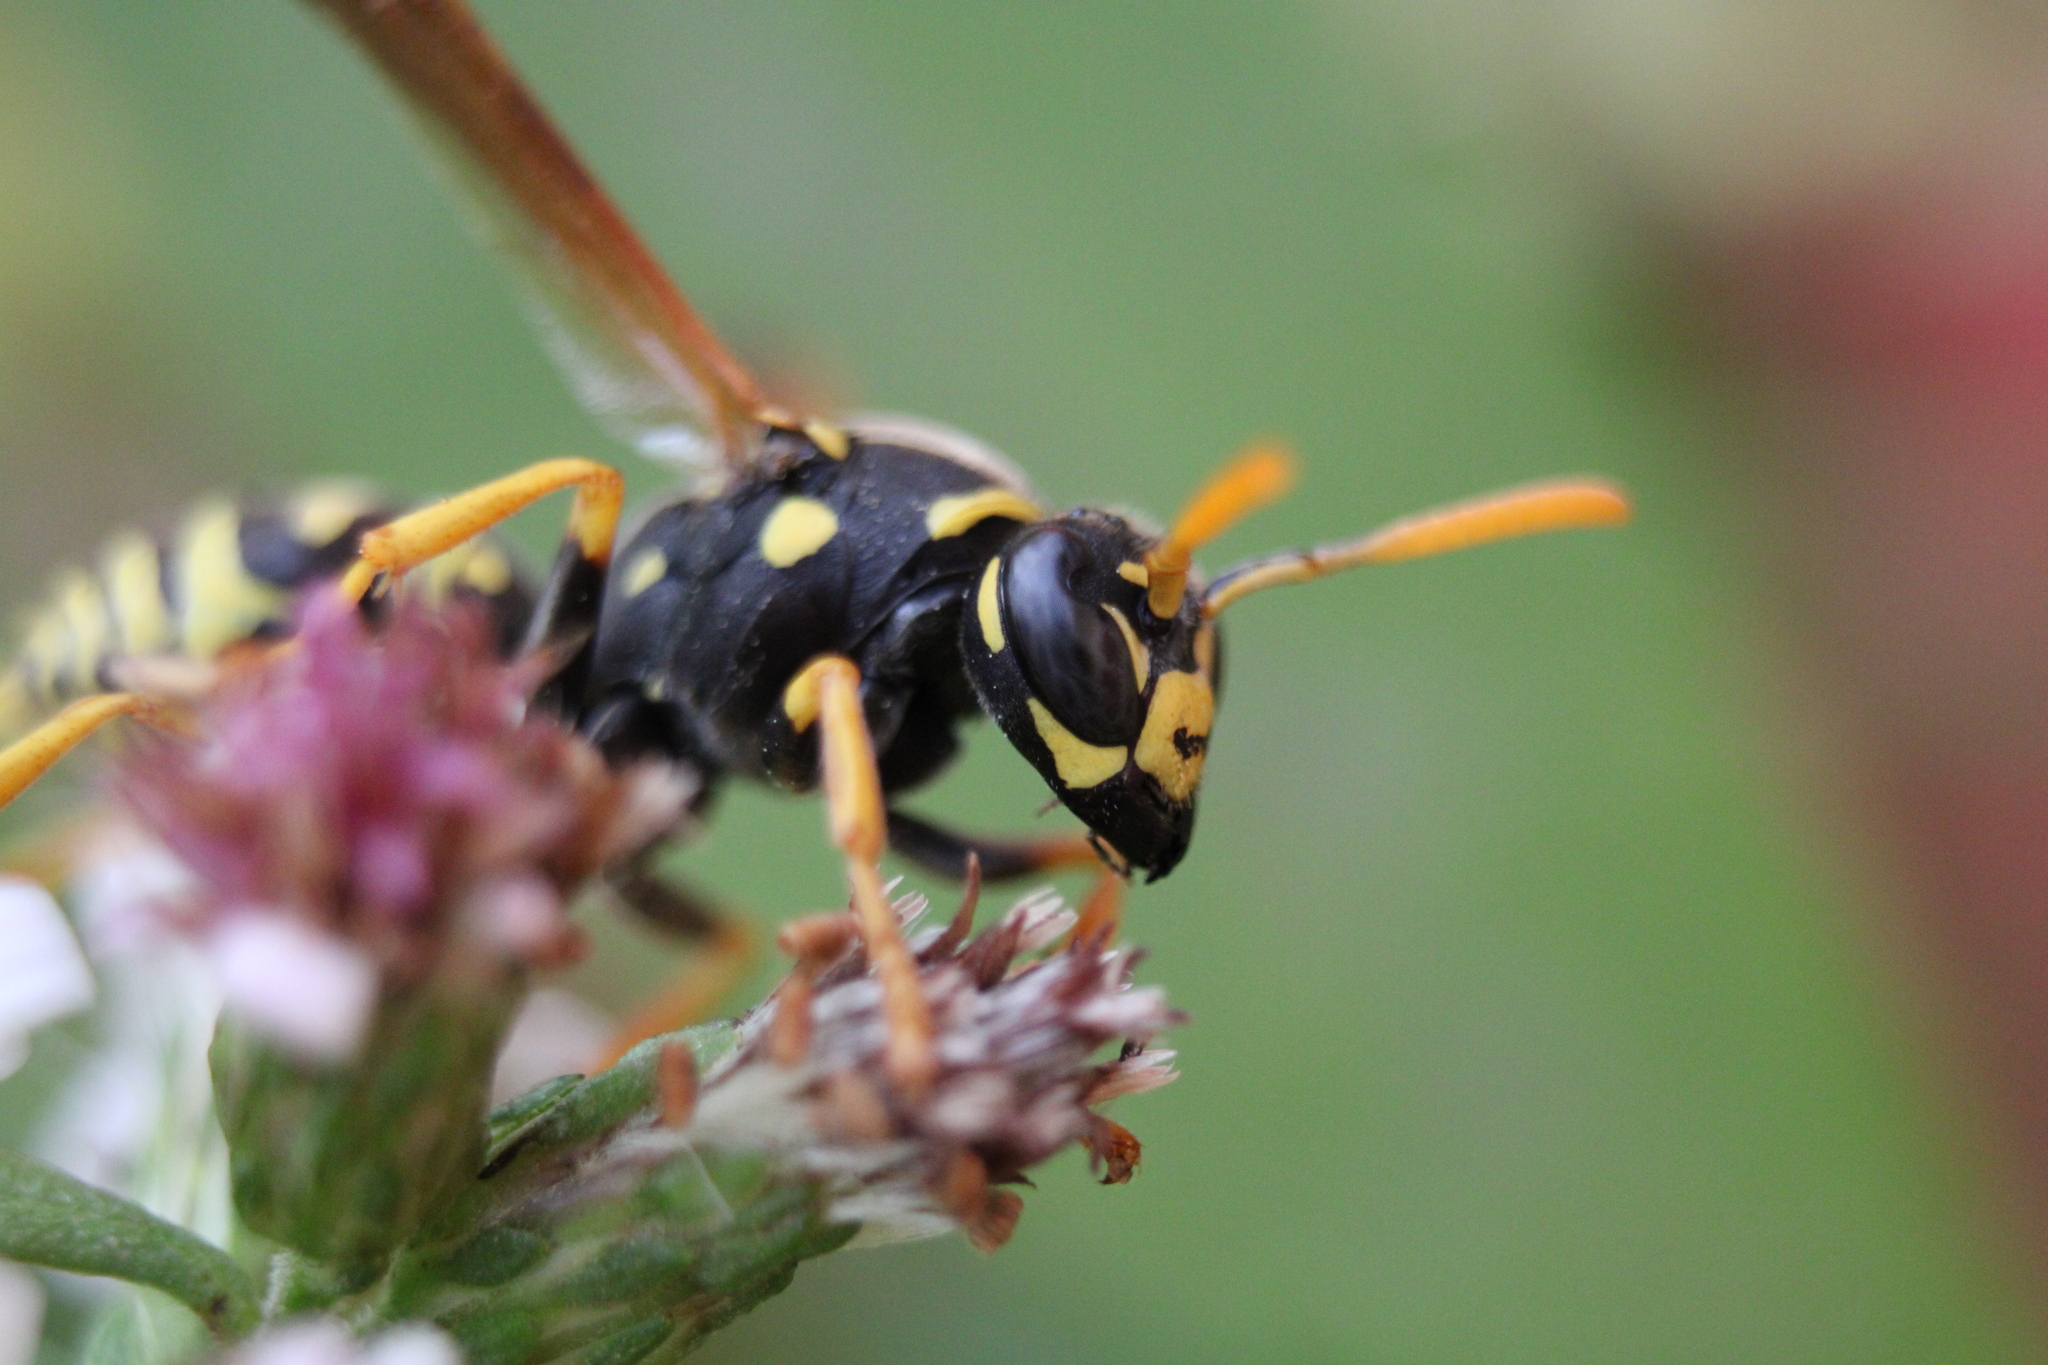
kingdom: Animalia
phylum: Arthropoda
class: Insecta
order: Hymenoptera
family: Eumenidae
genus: Polistes
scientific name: Polistes dominula
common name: Paper wasp
